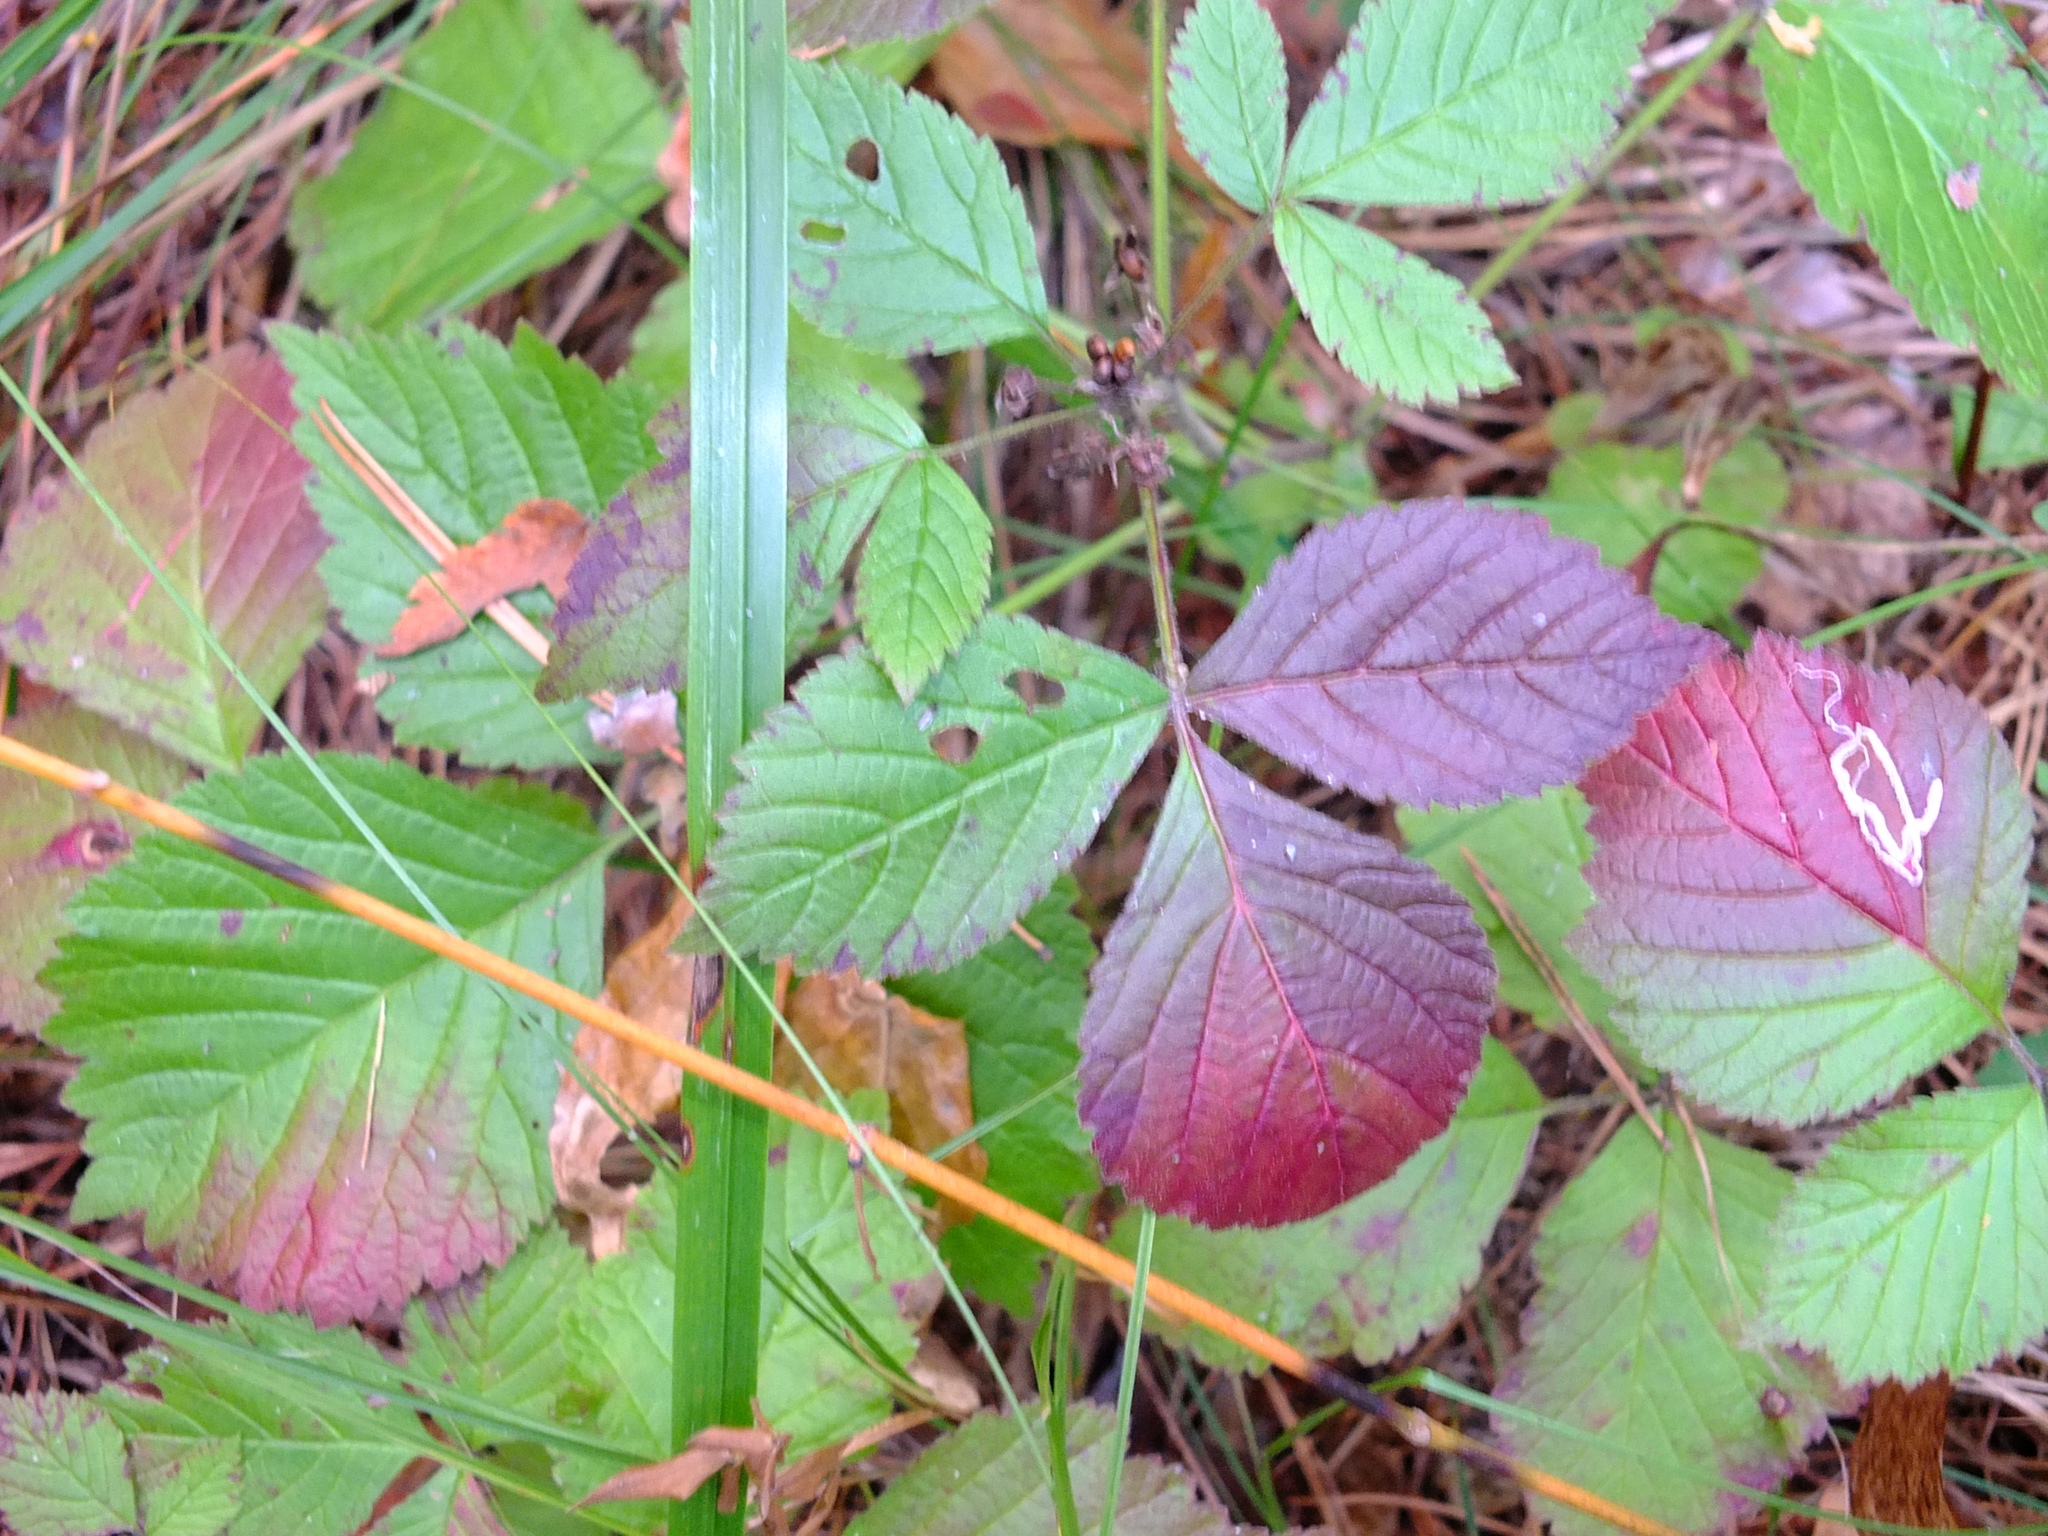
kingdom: Plantae
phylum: Tracheophyta
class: Magnoliopsida
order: Rosales
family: Rosaceae
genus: Rubus
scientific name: Rubus saxatilis
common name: Stone bramble
